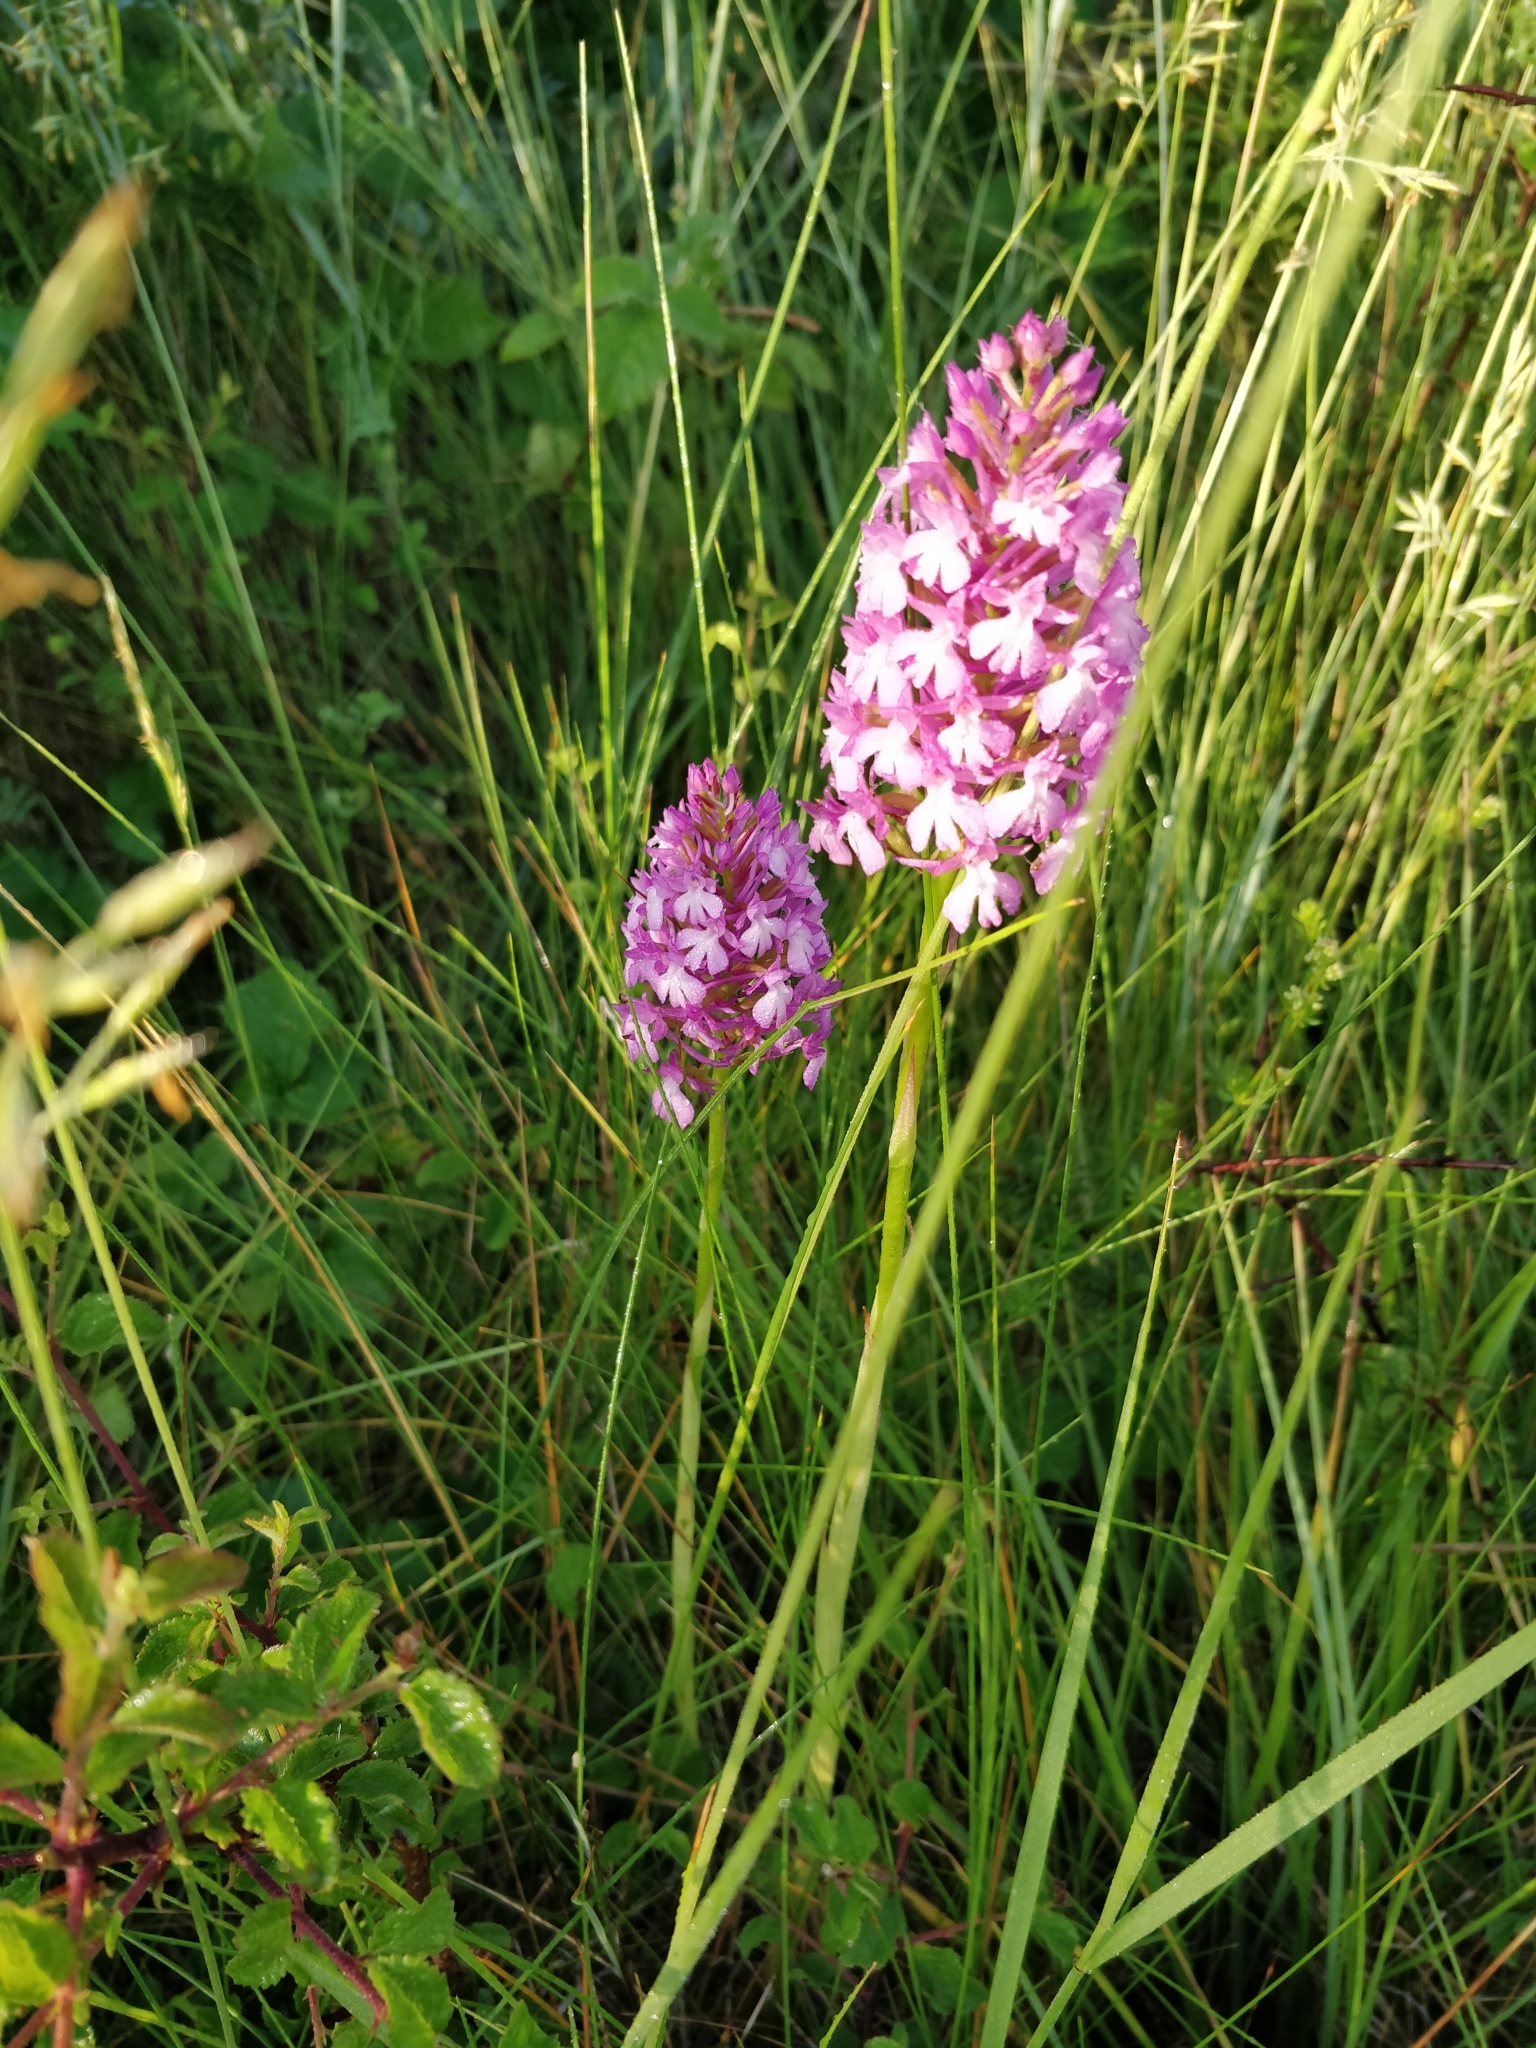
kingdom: Plantae
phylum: Tracheophyta
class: Liliopsida
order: Asparagales
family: Orchidaceae
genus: Anacamptis
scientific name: Anacamptis pyramidalis
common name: Pyramidal orchid
